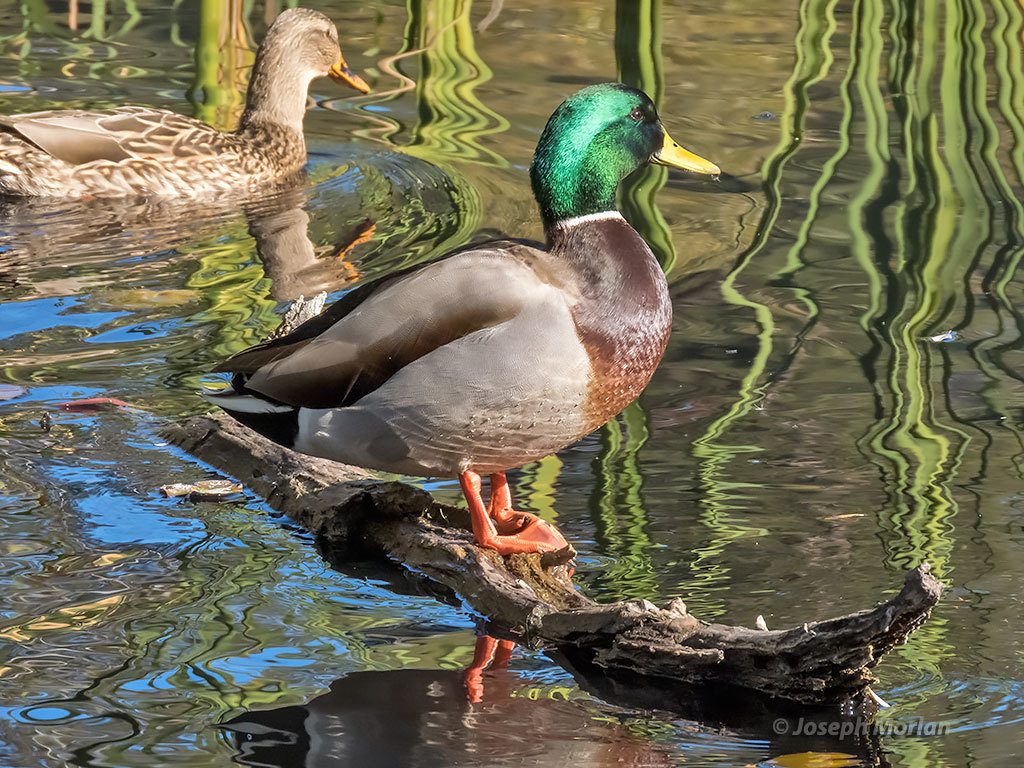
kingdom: Animalia
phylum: Chordata
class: Aves
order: Anseriformes
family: Anatidae
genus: Anas
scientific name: Anas platyrhynchos
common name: Mallard
